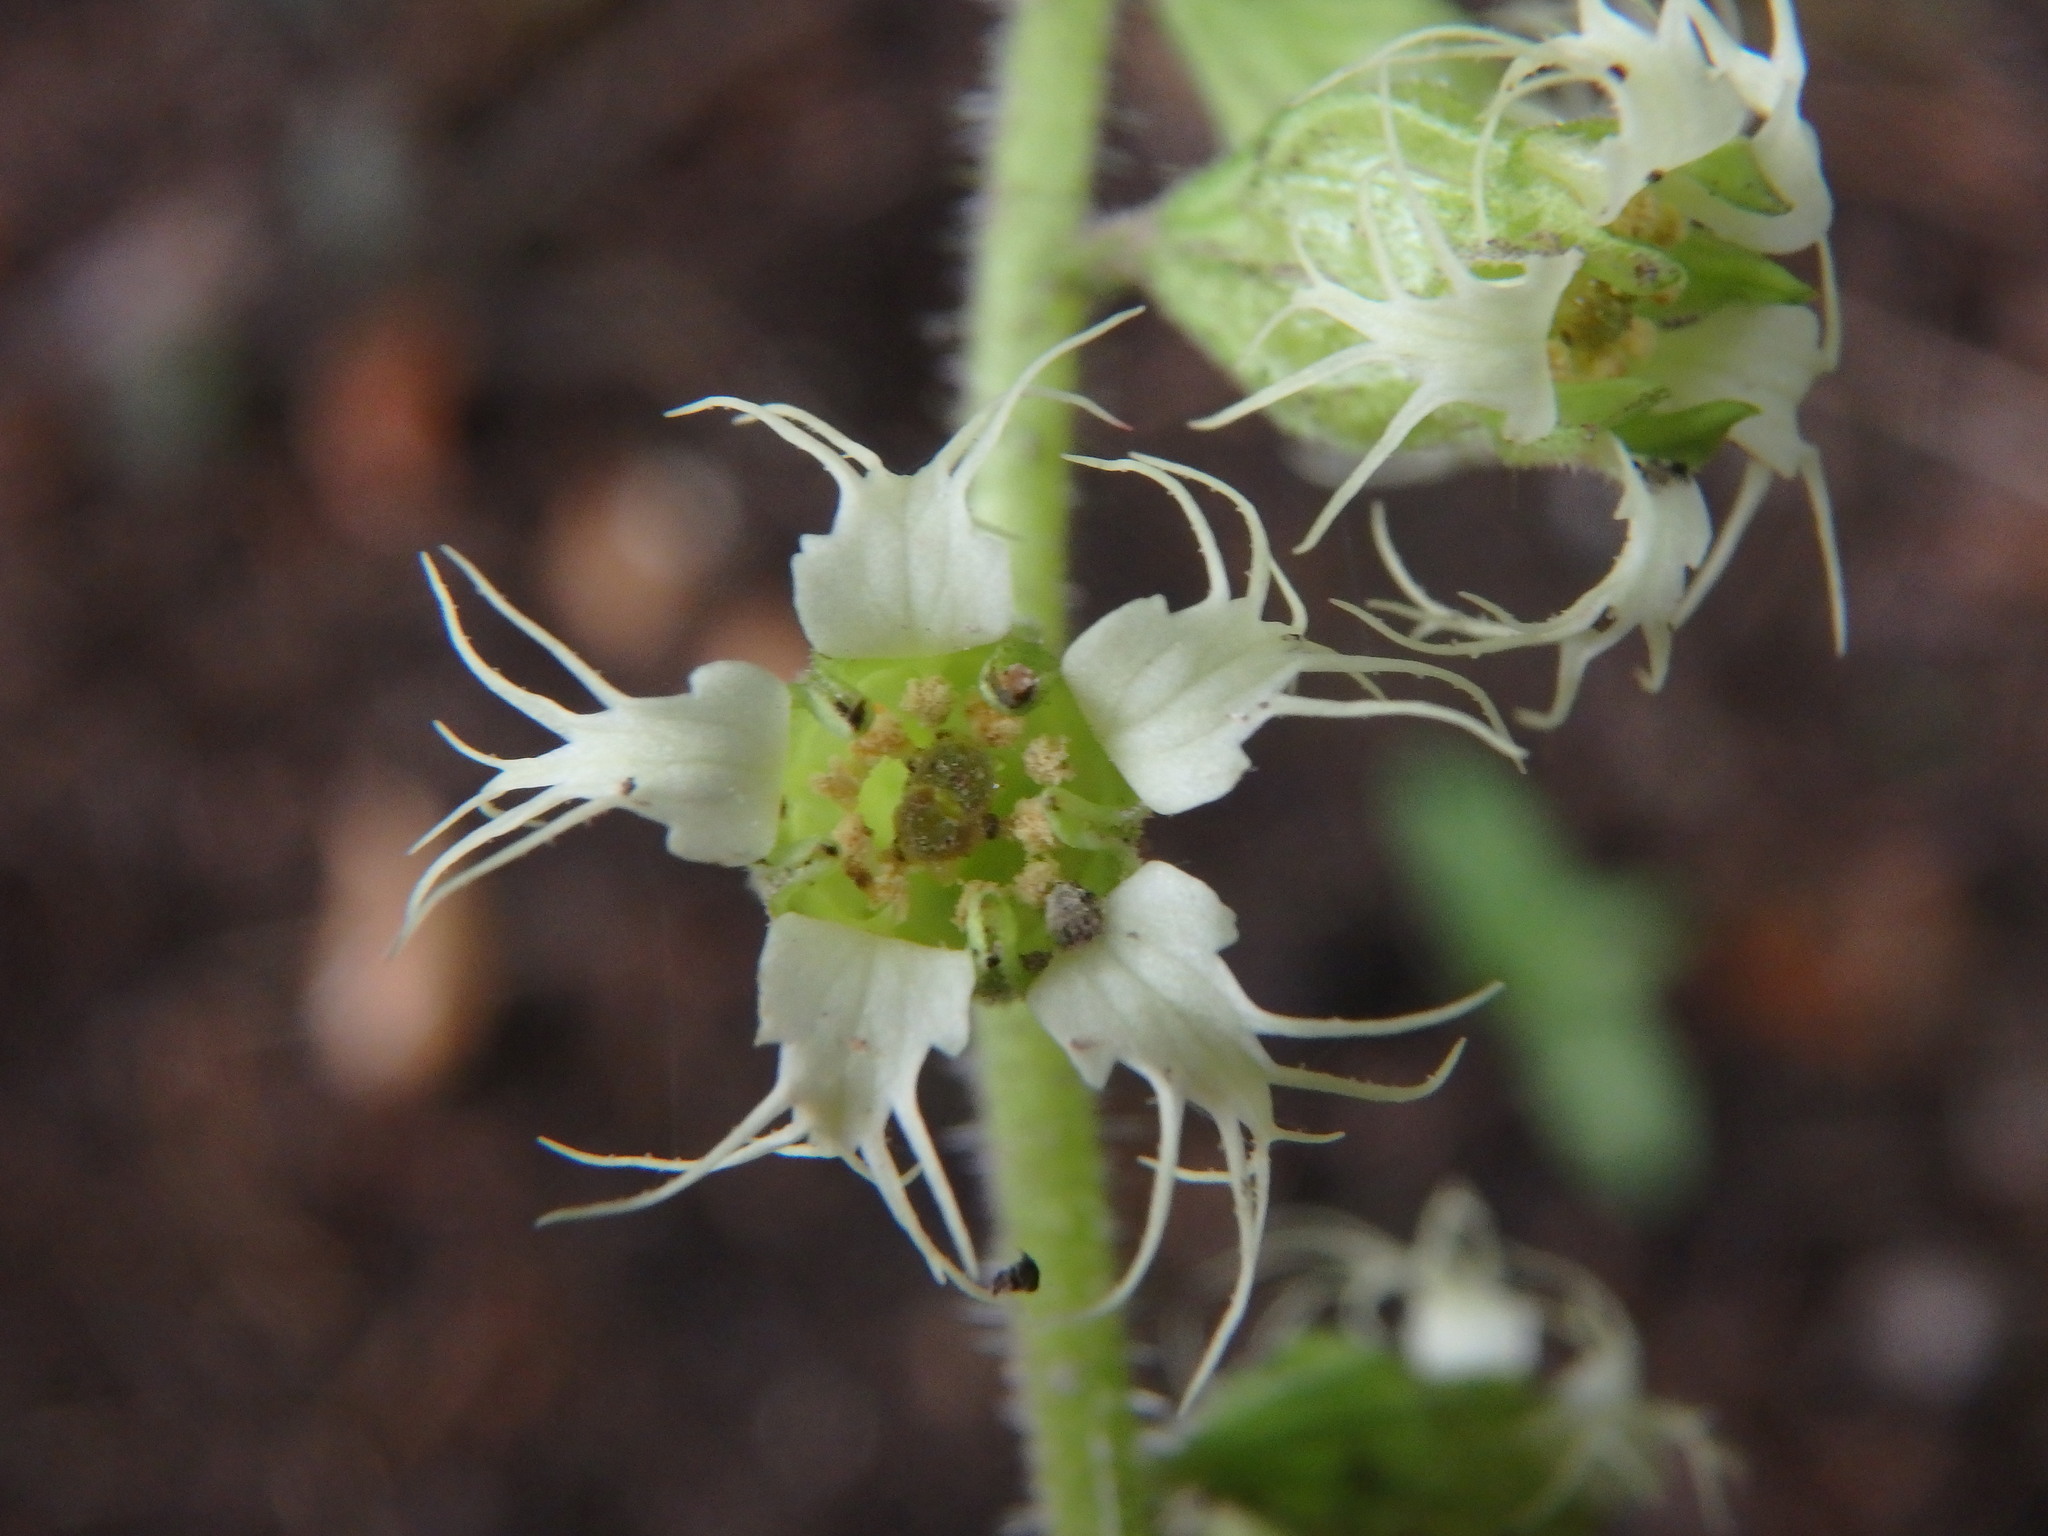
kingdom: Plantae
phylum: Tracheophyta
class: Magnoliopsida
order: Saxifragales
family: Saxifragaceae
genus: Tellima
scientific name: Tellima grandiflora
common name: Fringecups
